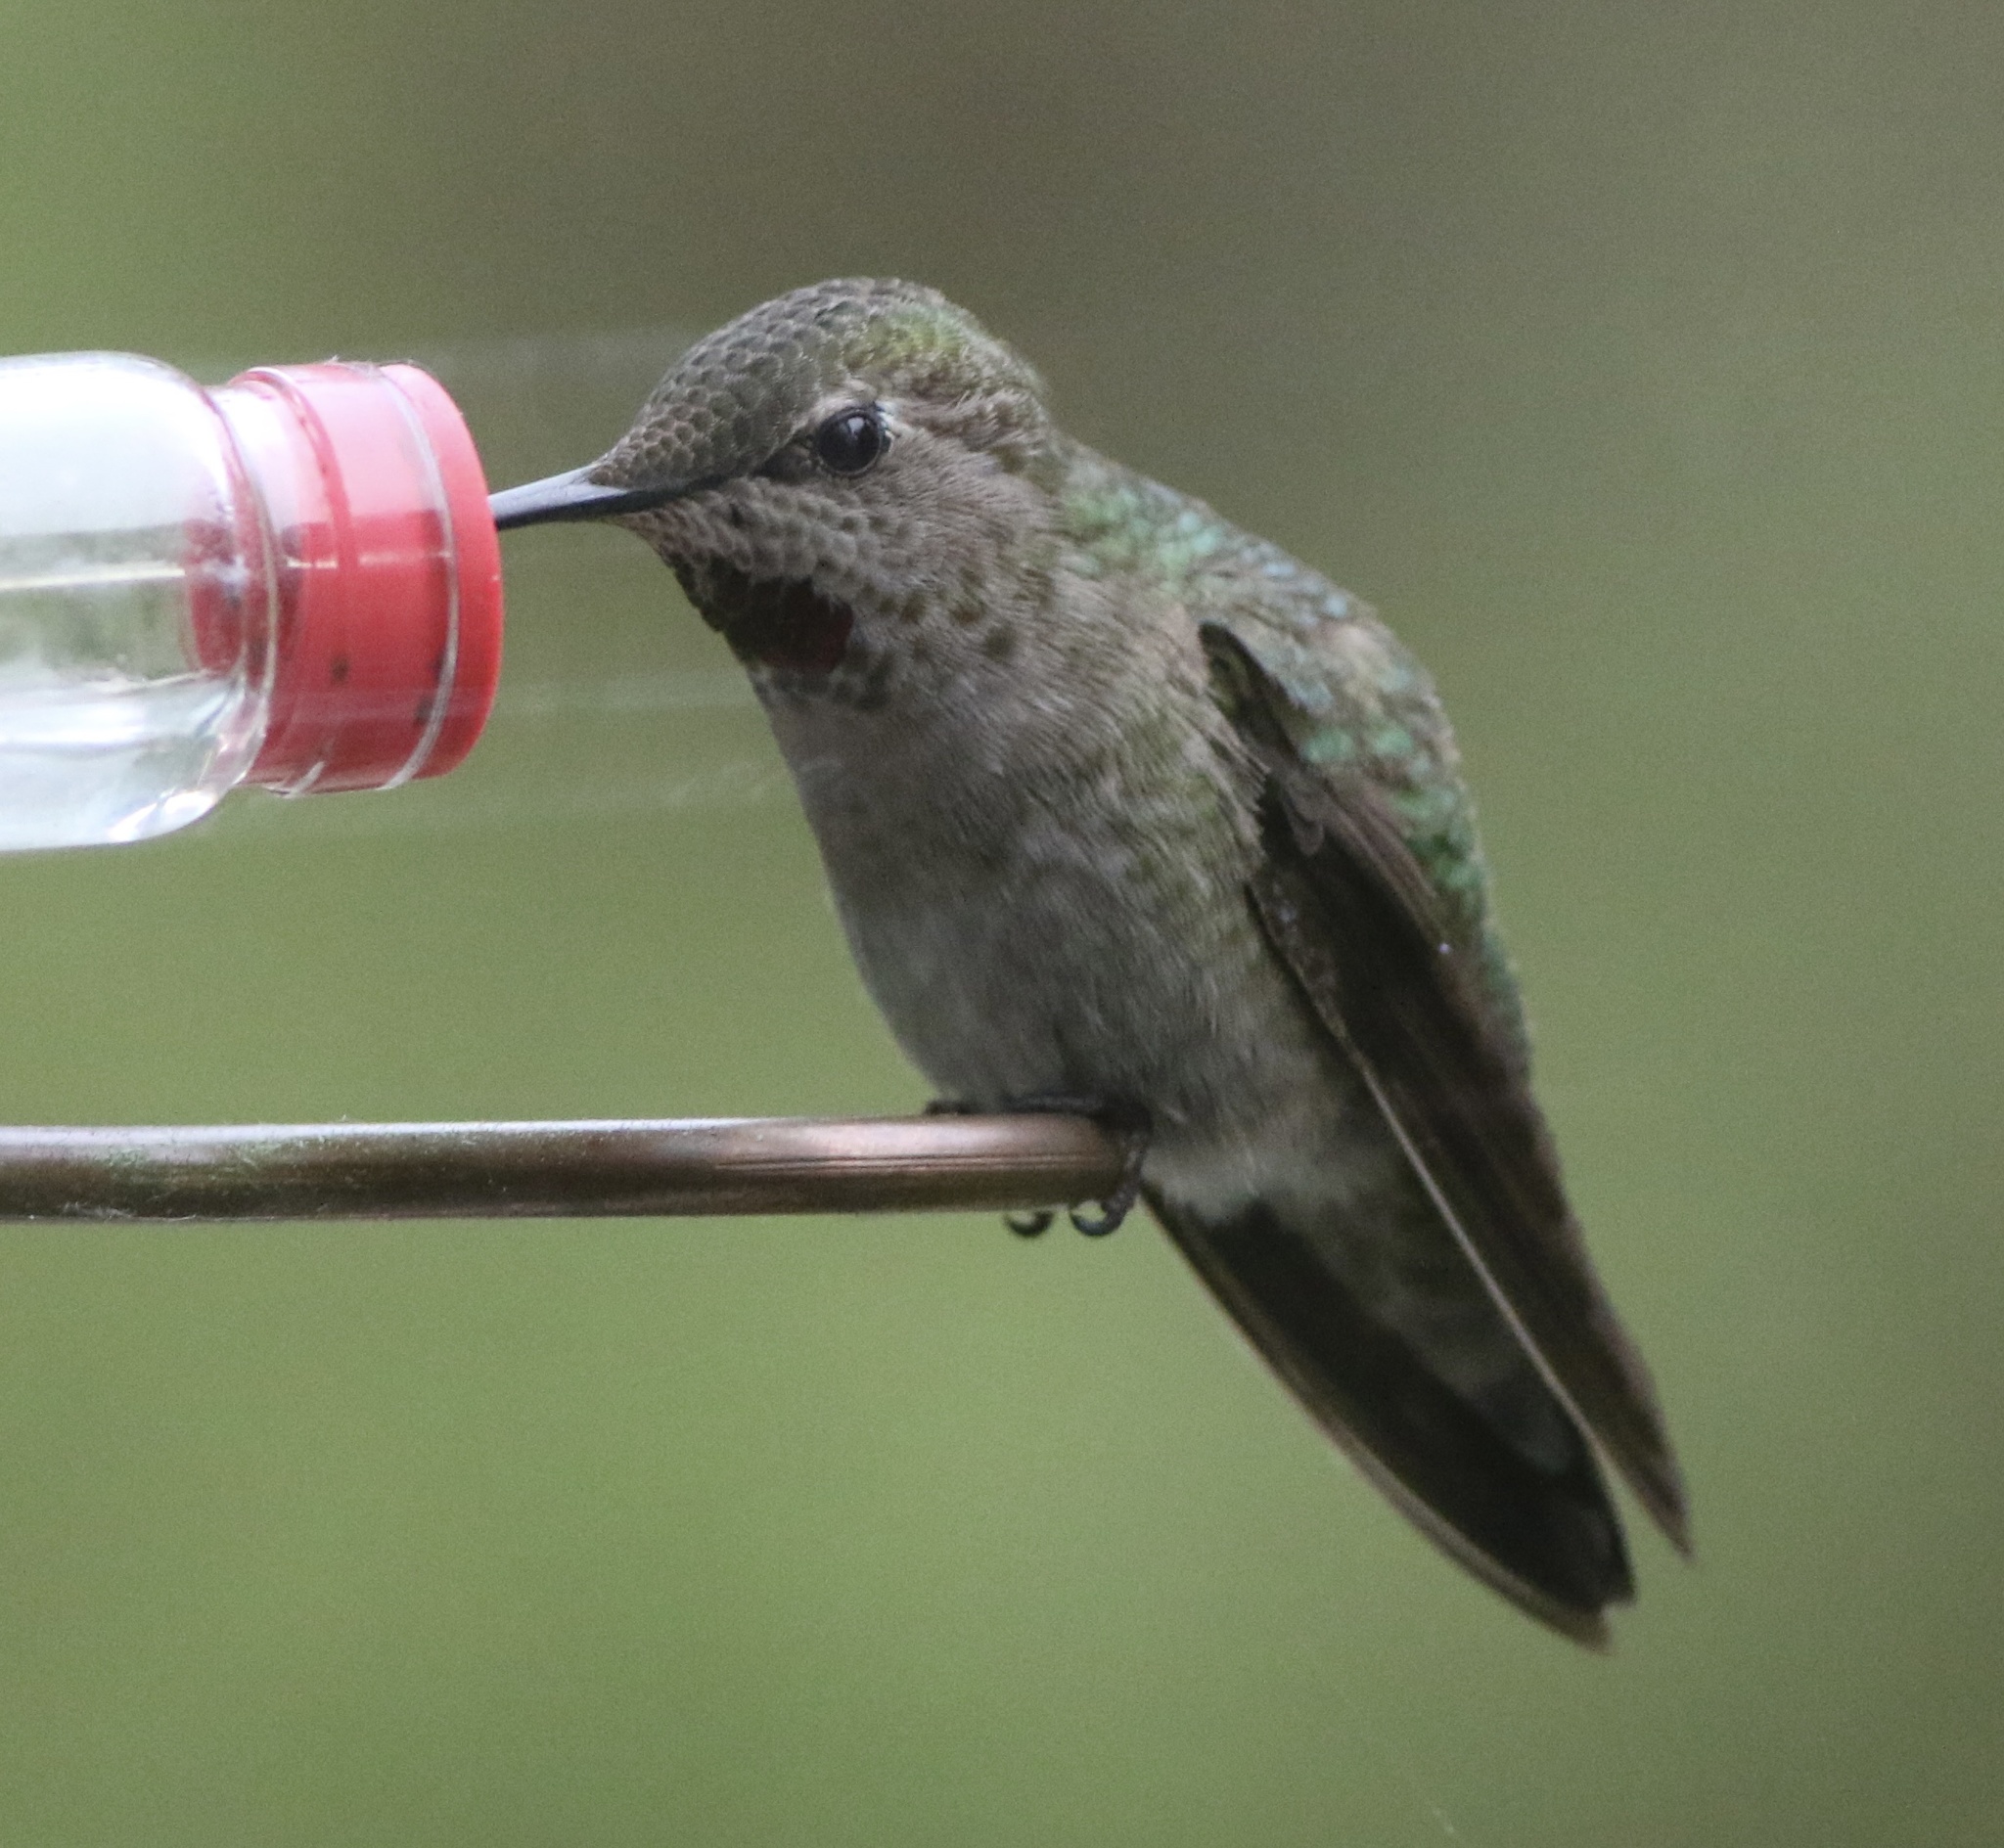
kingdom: Animalia
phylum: Chordata
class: Aves
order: Apodiformes
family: Trochilidae
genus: Calypte
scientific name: Calypte anna
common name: Anna's hummingbird
